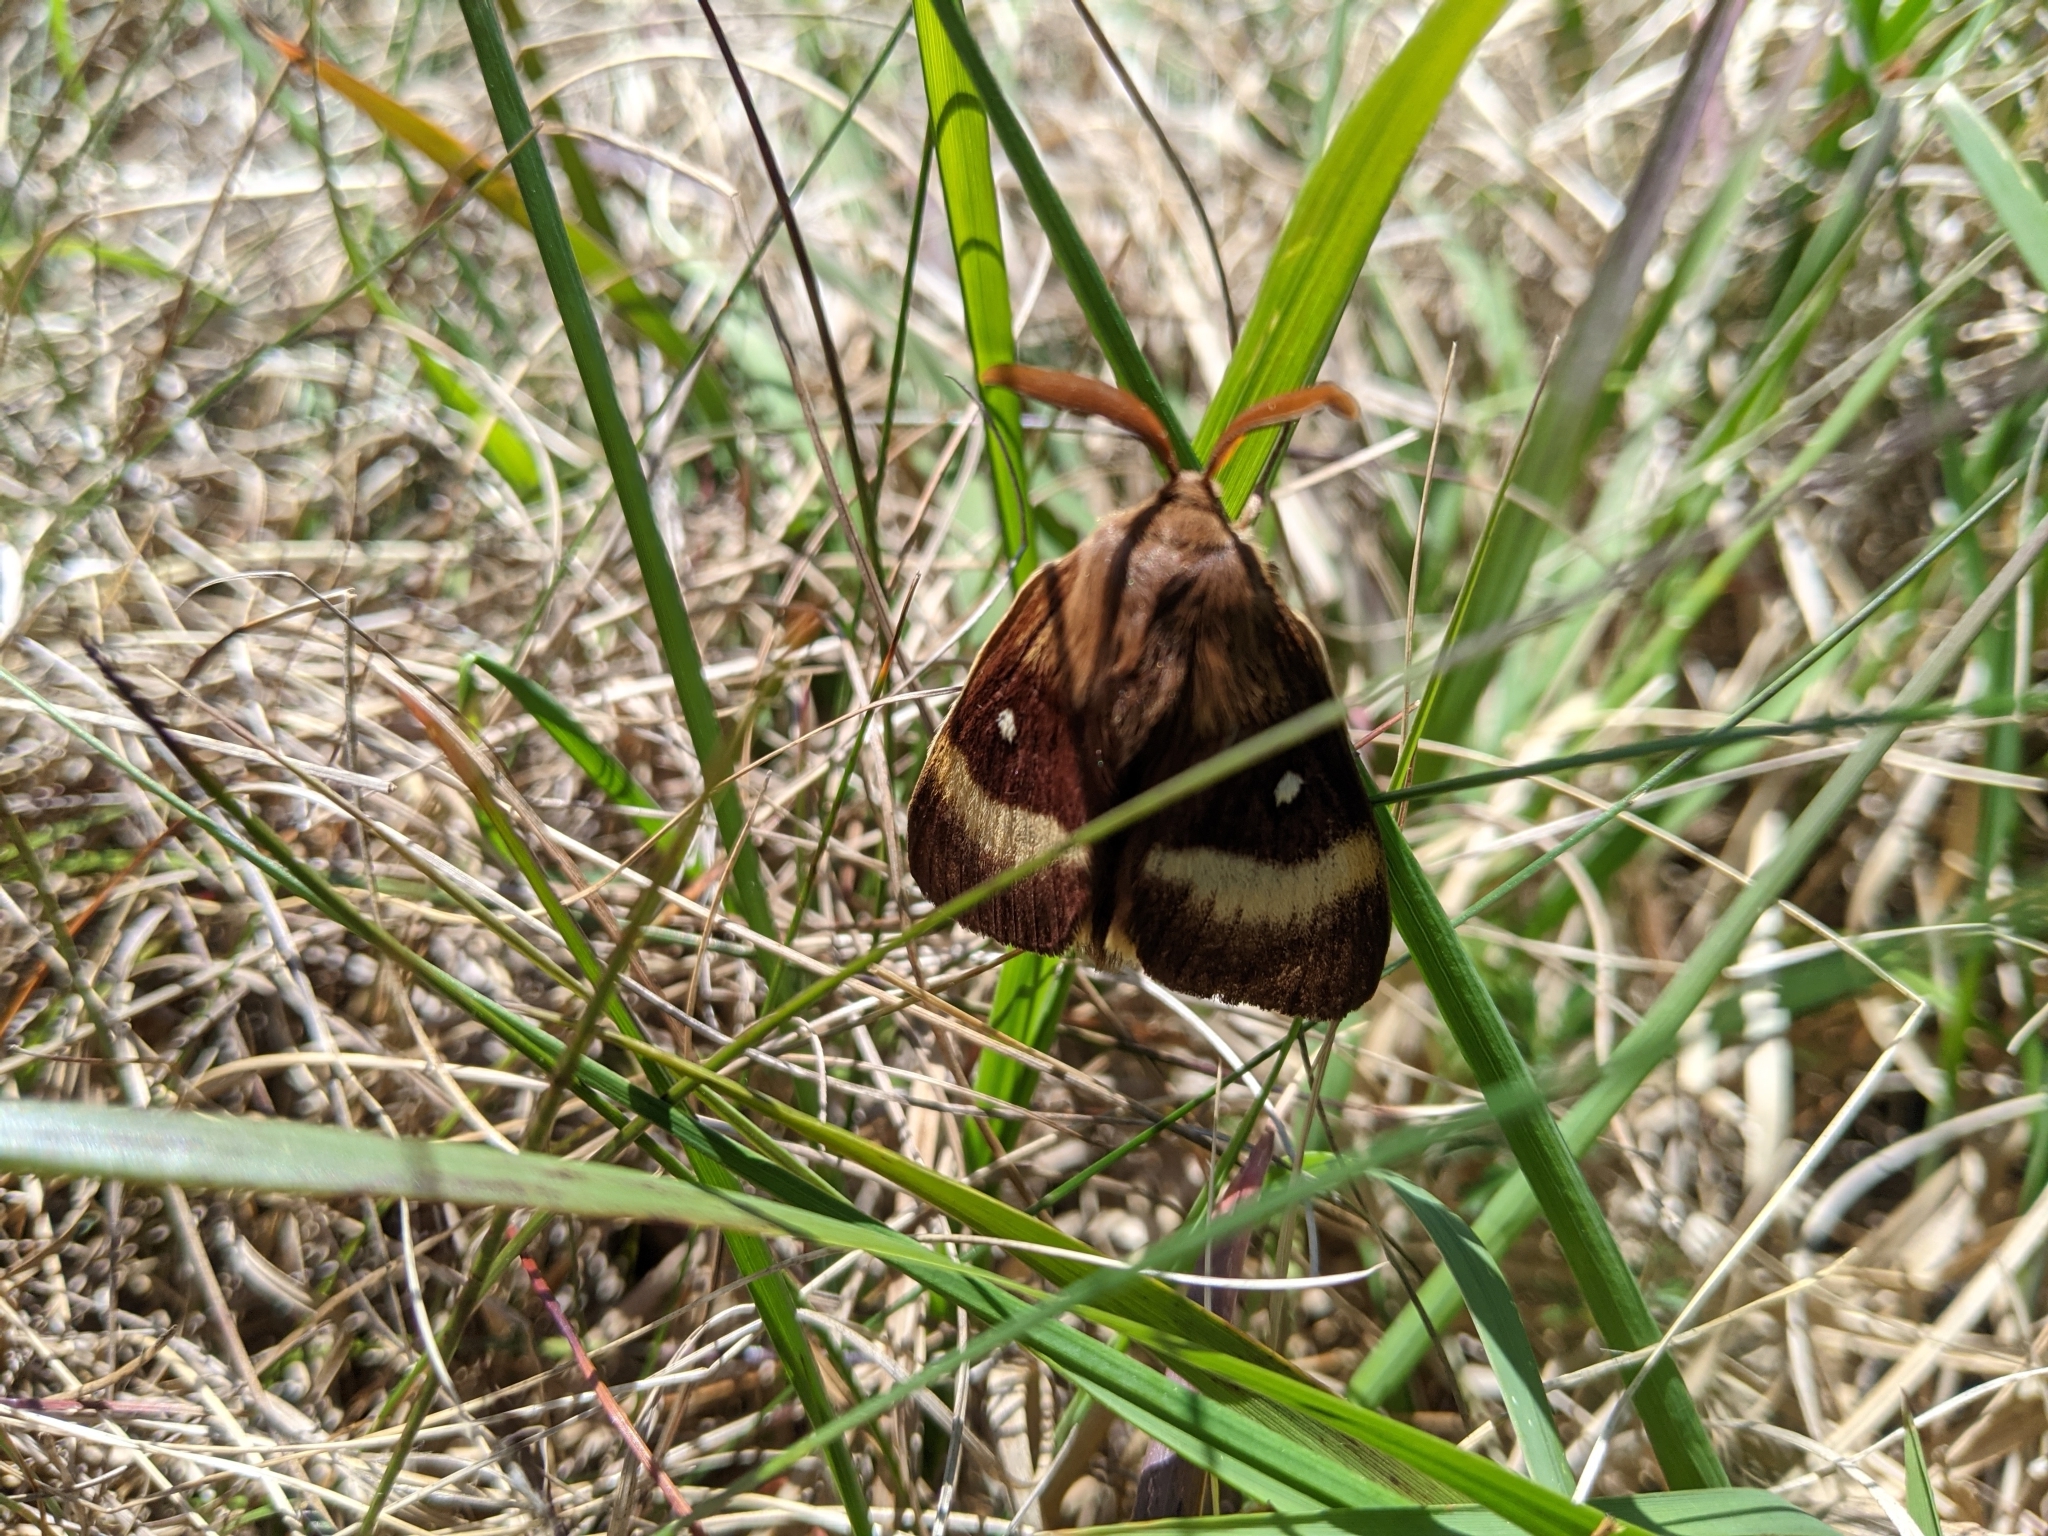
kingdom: Animalia
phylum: Arthropoda
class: Insecta
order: Lepidoptera
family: Lasiocampidae
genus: Lasiocampa
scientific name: Lasiocampa quercus
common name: Oak eggar
